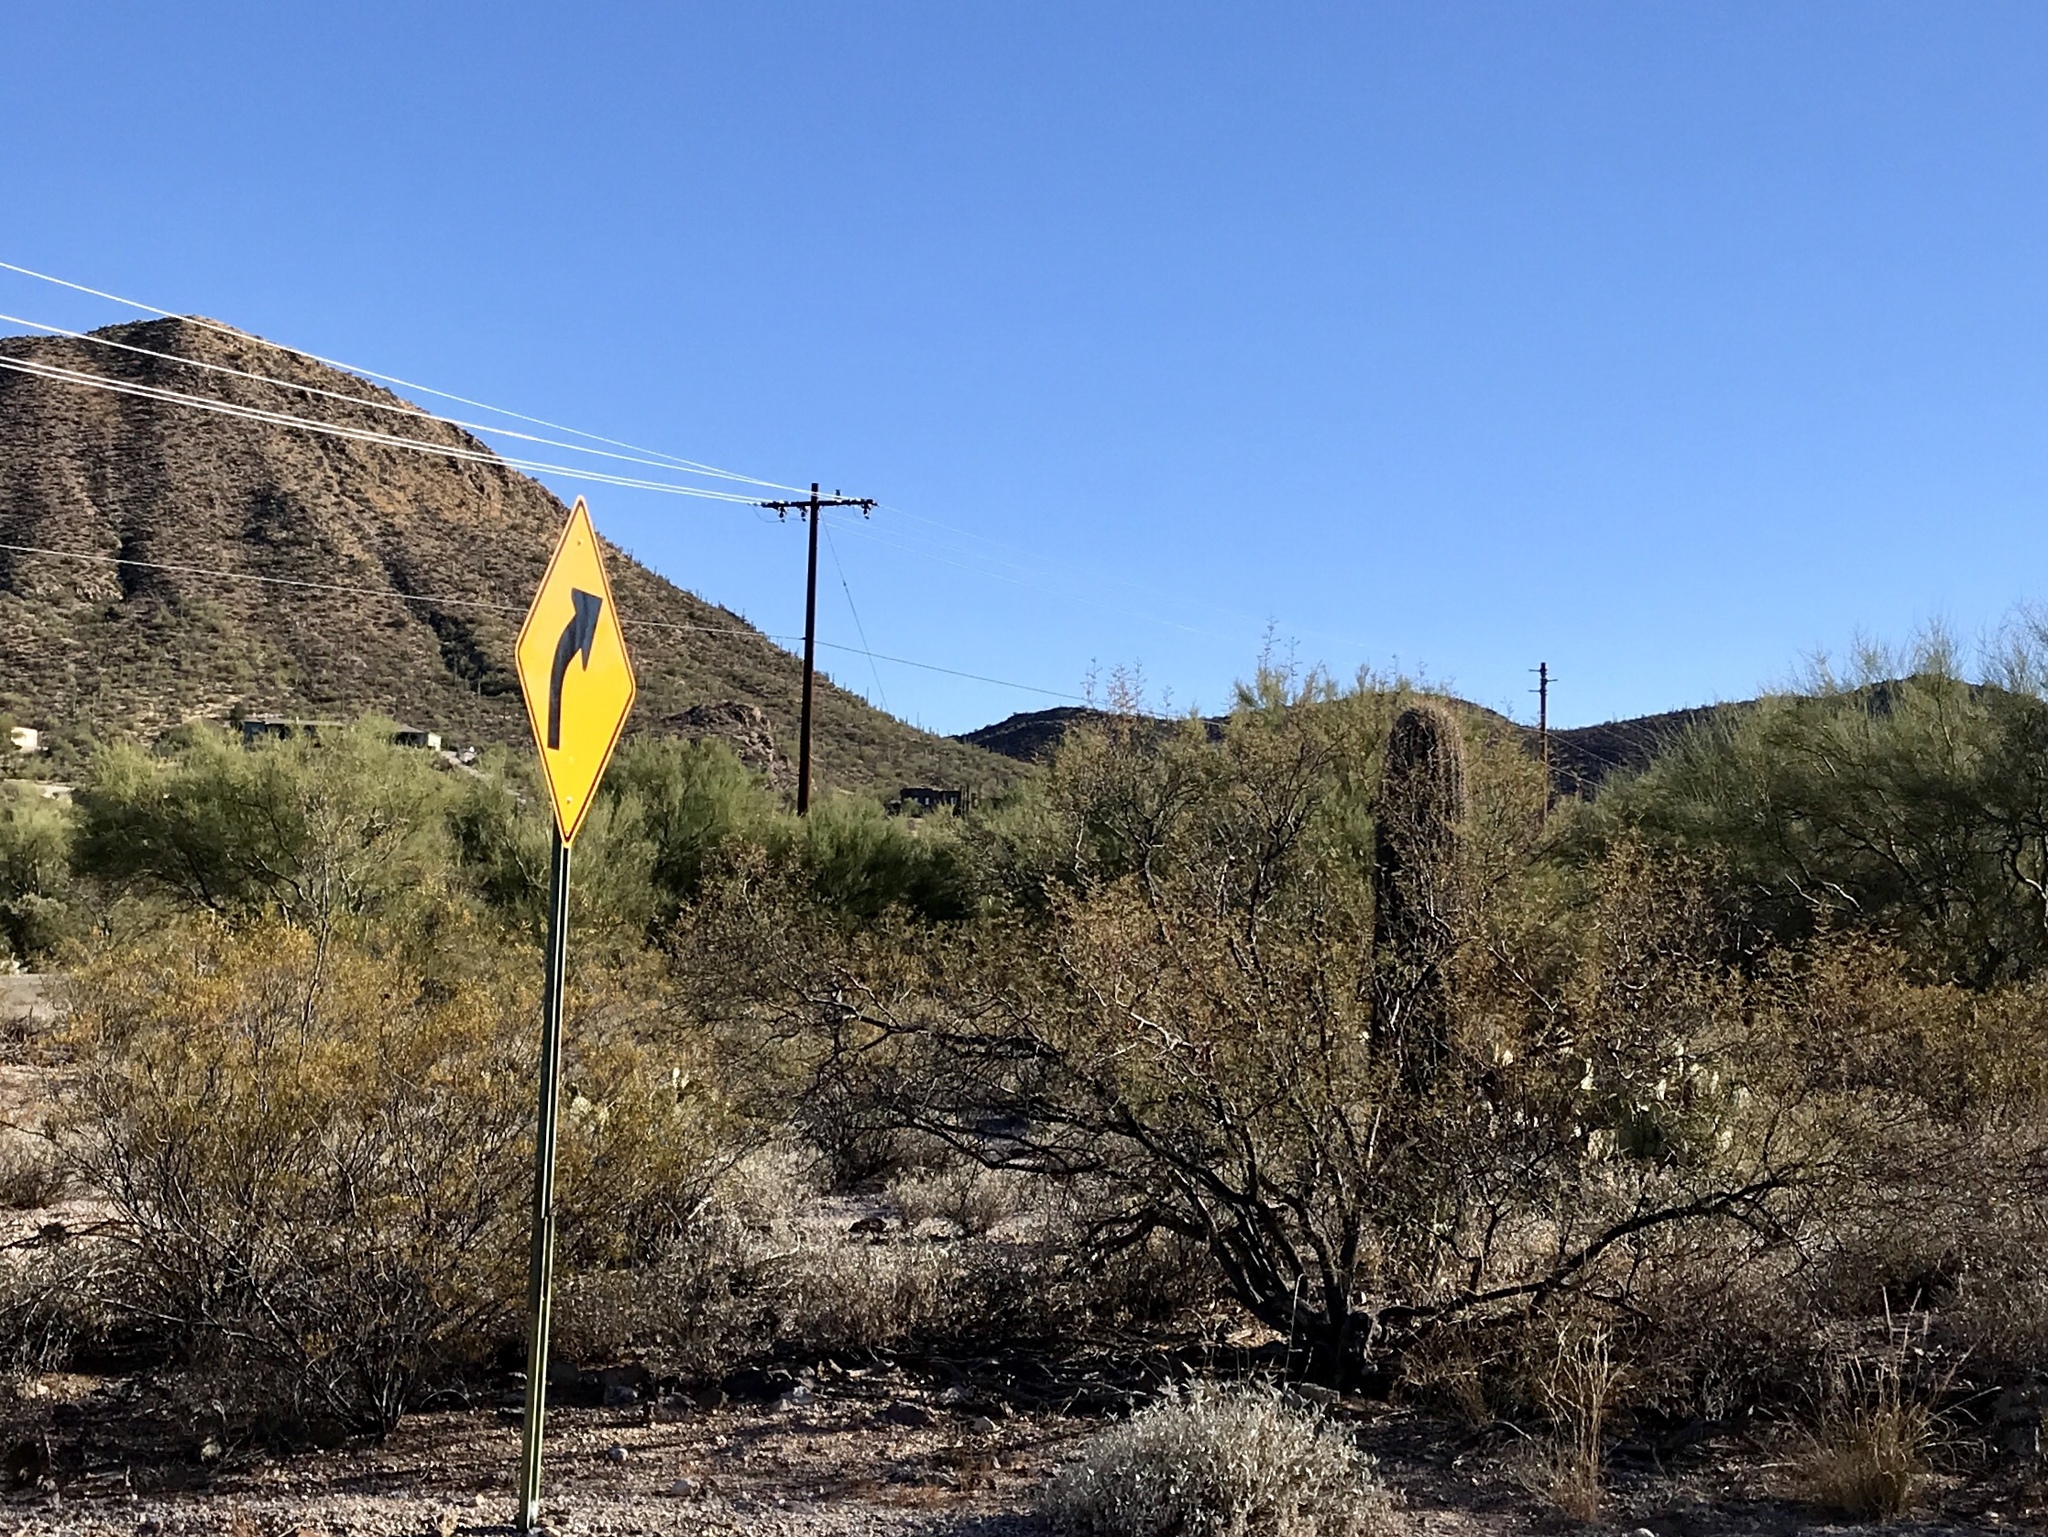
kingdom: Plantae
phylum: Tracheophyta
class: Magnoliopsida
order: Zygophyllales
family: Zygophyllaceae
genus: Larrea
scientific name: Larrea tridentata
